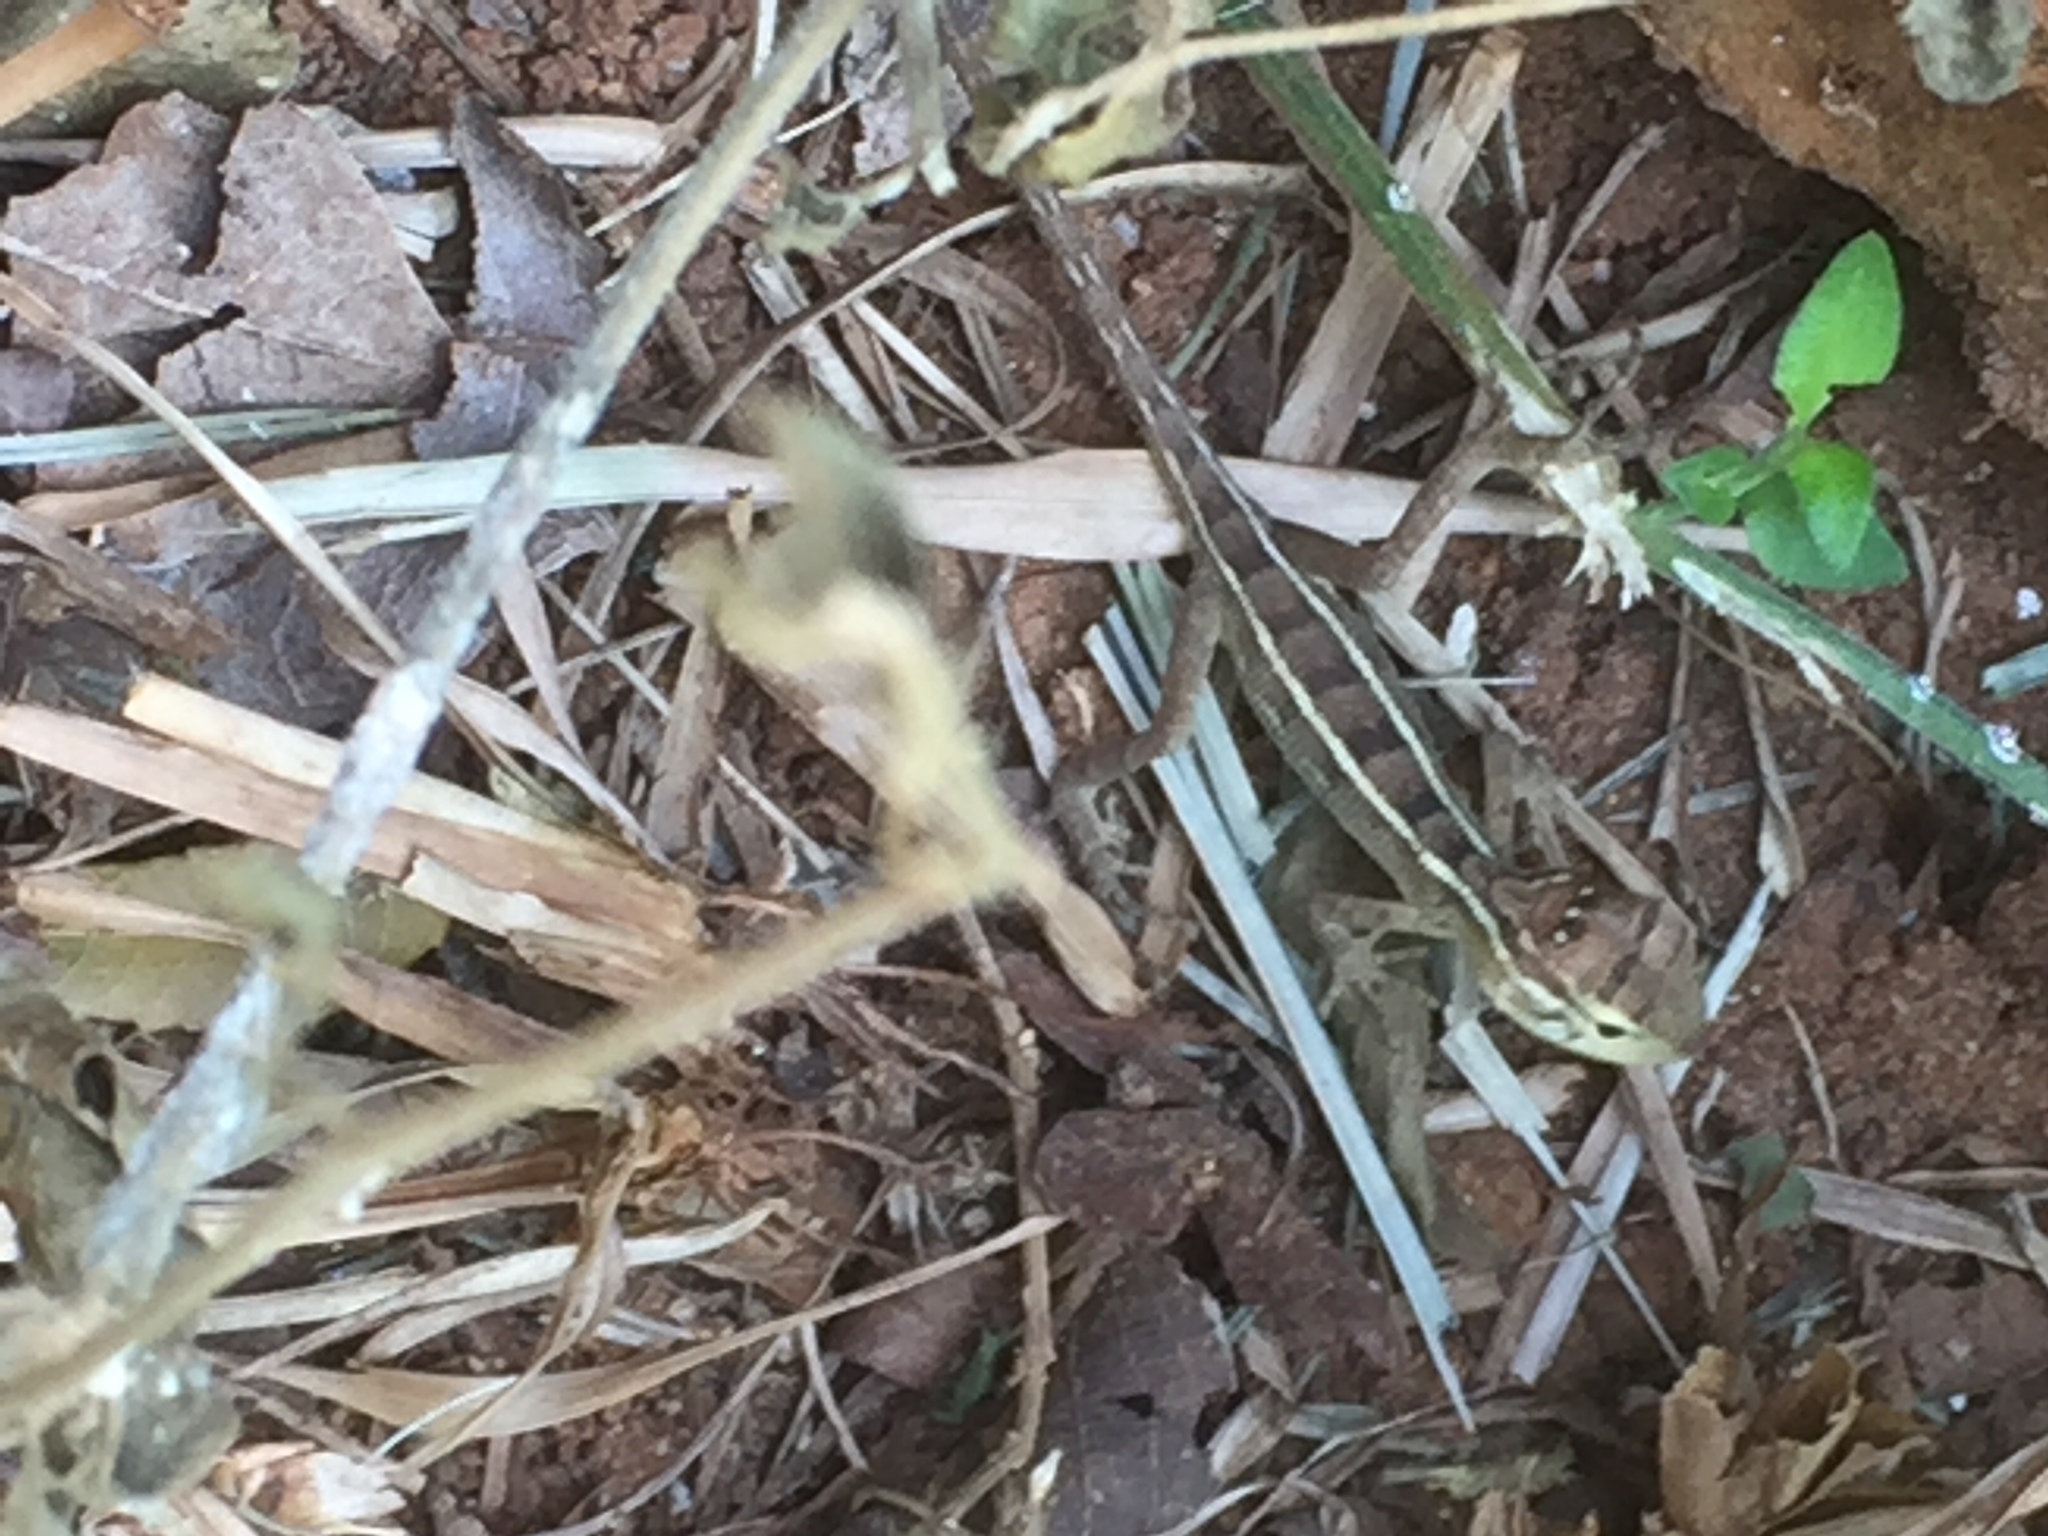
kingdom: Animalia
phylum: Chordata
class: Squamata
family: Agamidae
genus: Calotes
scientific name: Calotes versicolor
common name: Oriental garden lizard
